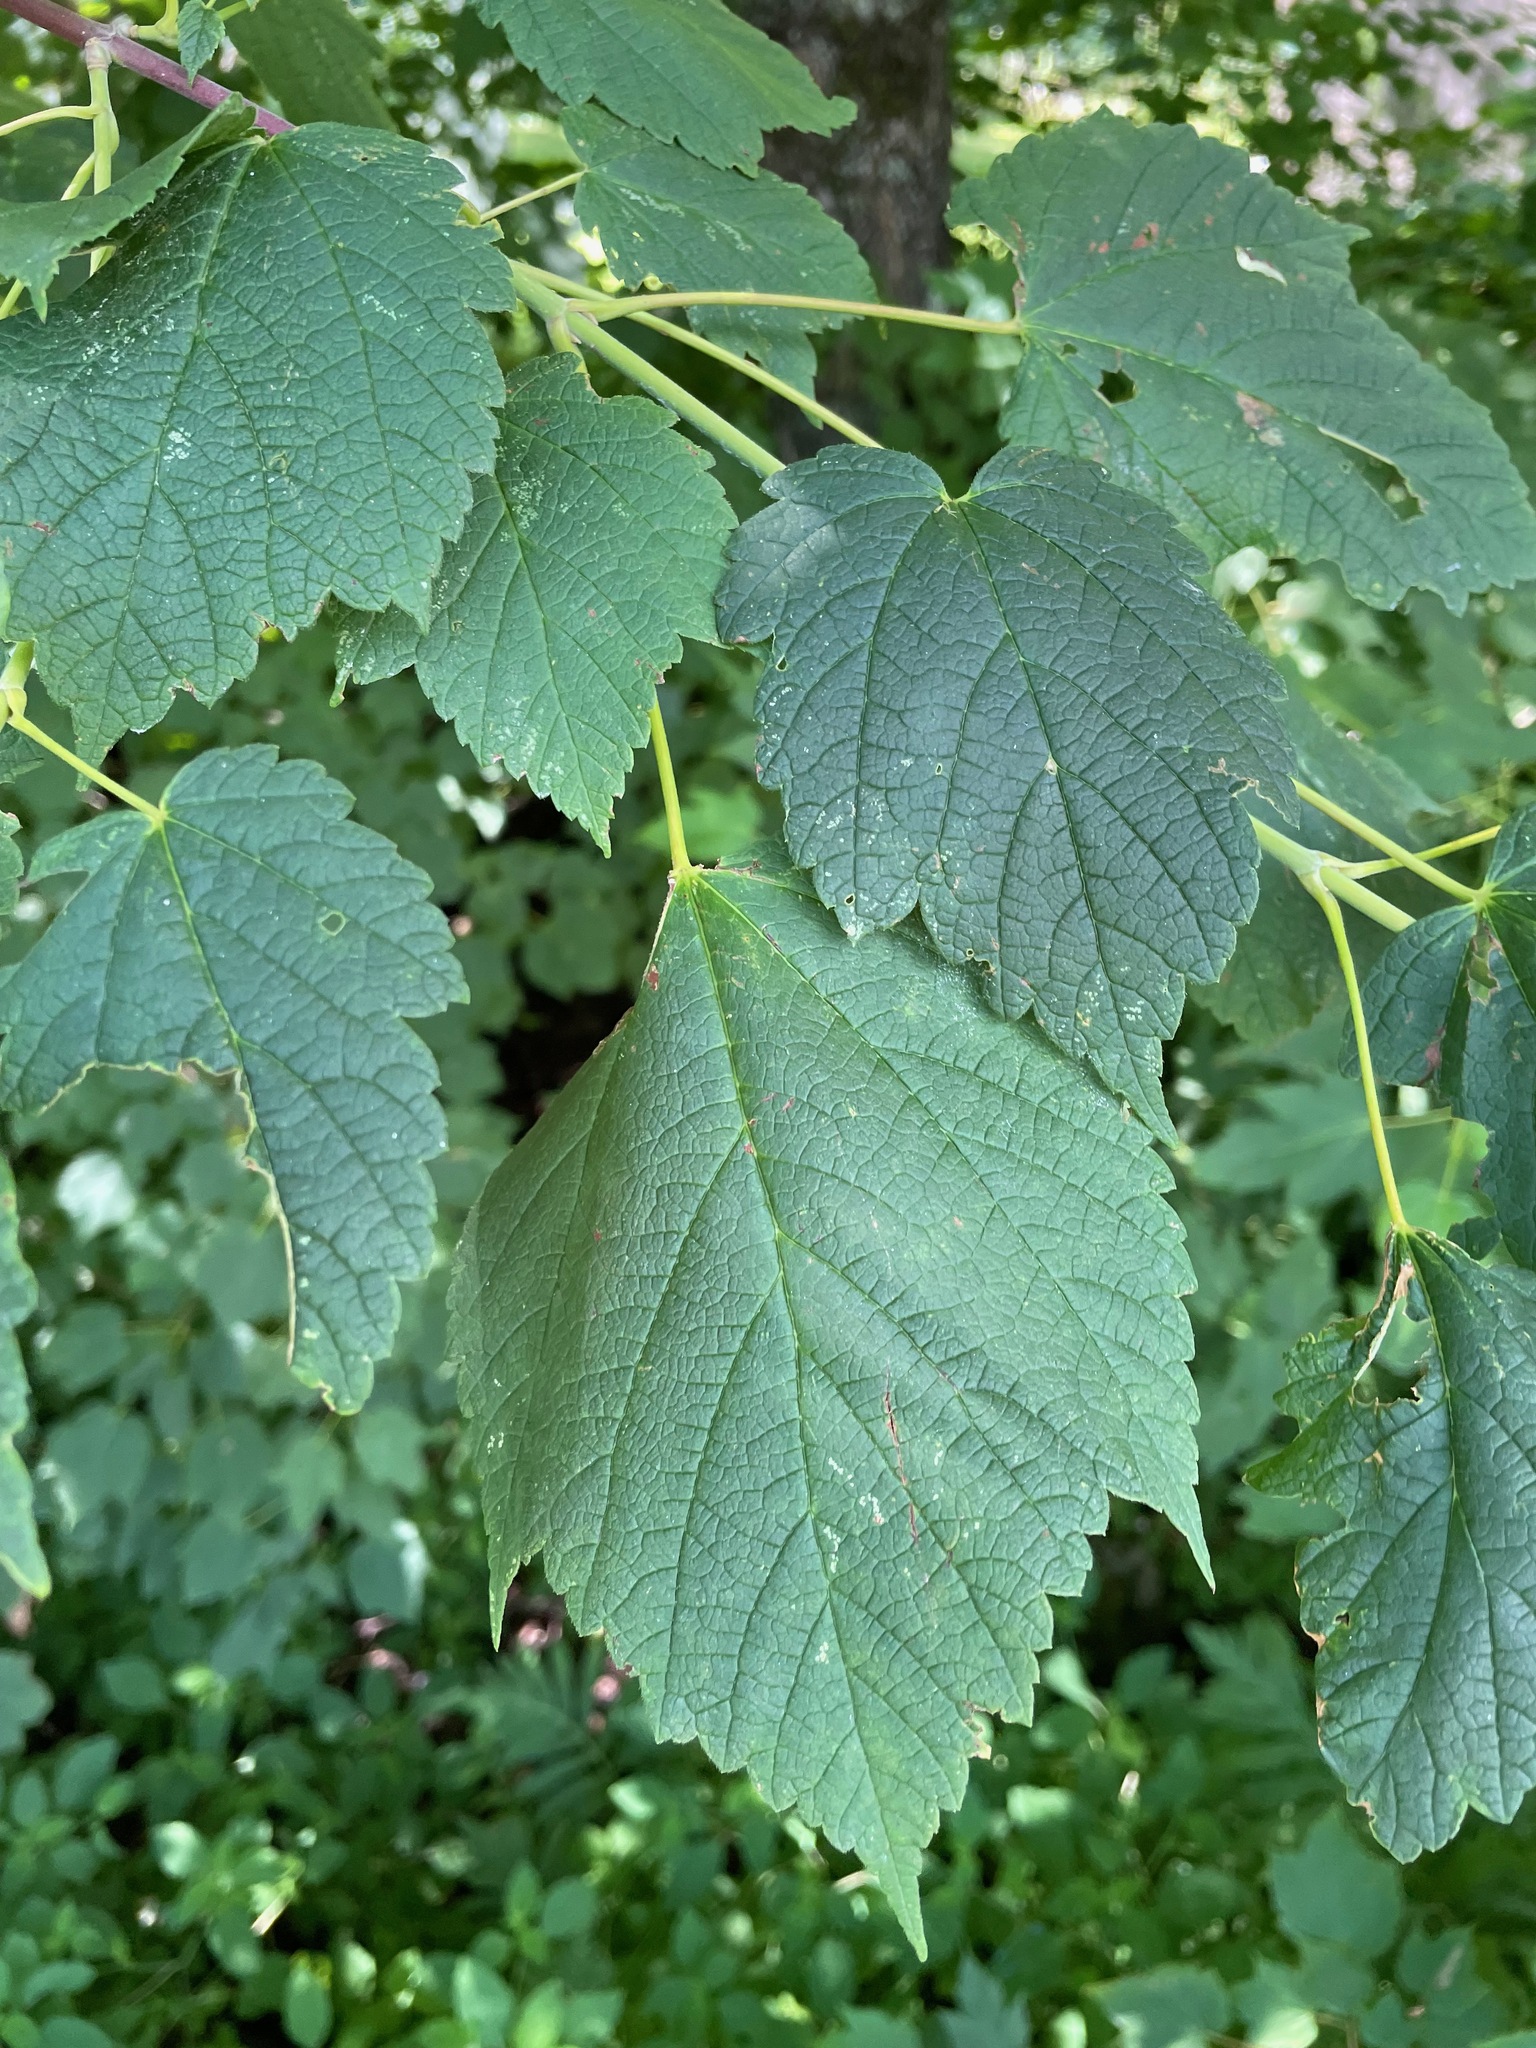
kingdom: Plantae
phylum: Tracheophyta
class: Magnoliopsida
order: Sapindales
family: Sapindaceae
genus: Acer
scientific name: Acer spicatum
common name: Mountain maple
